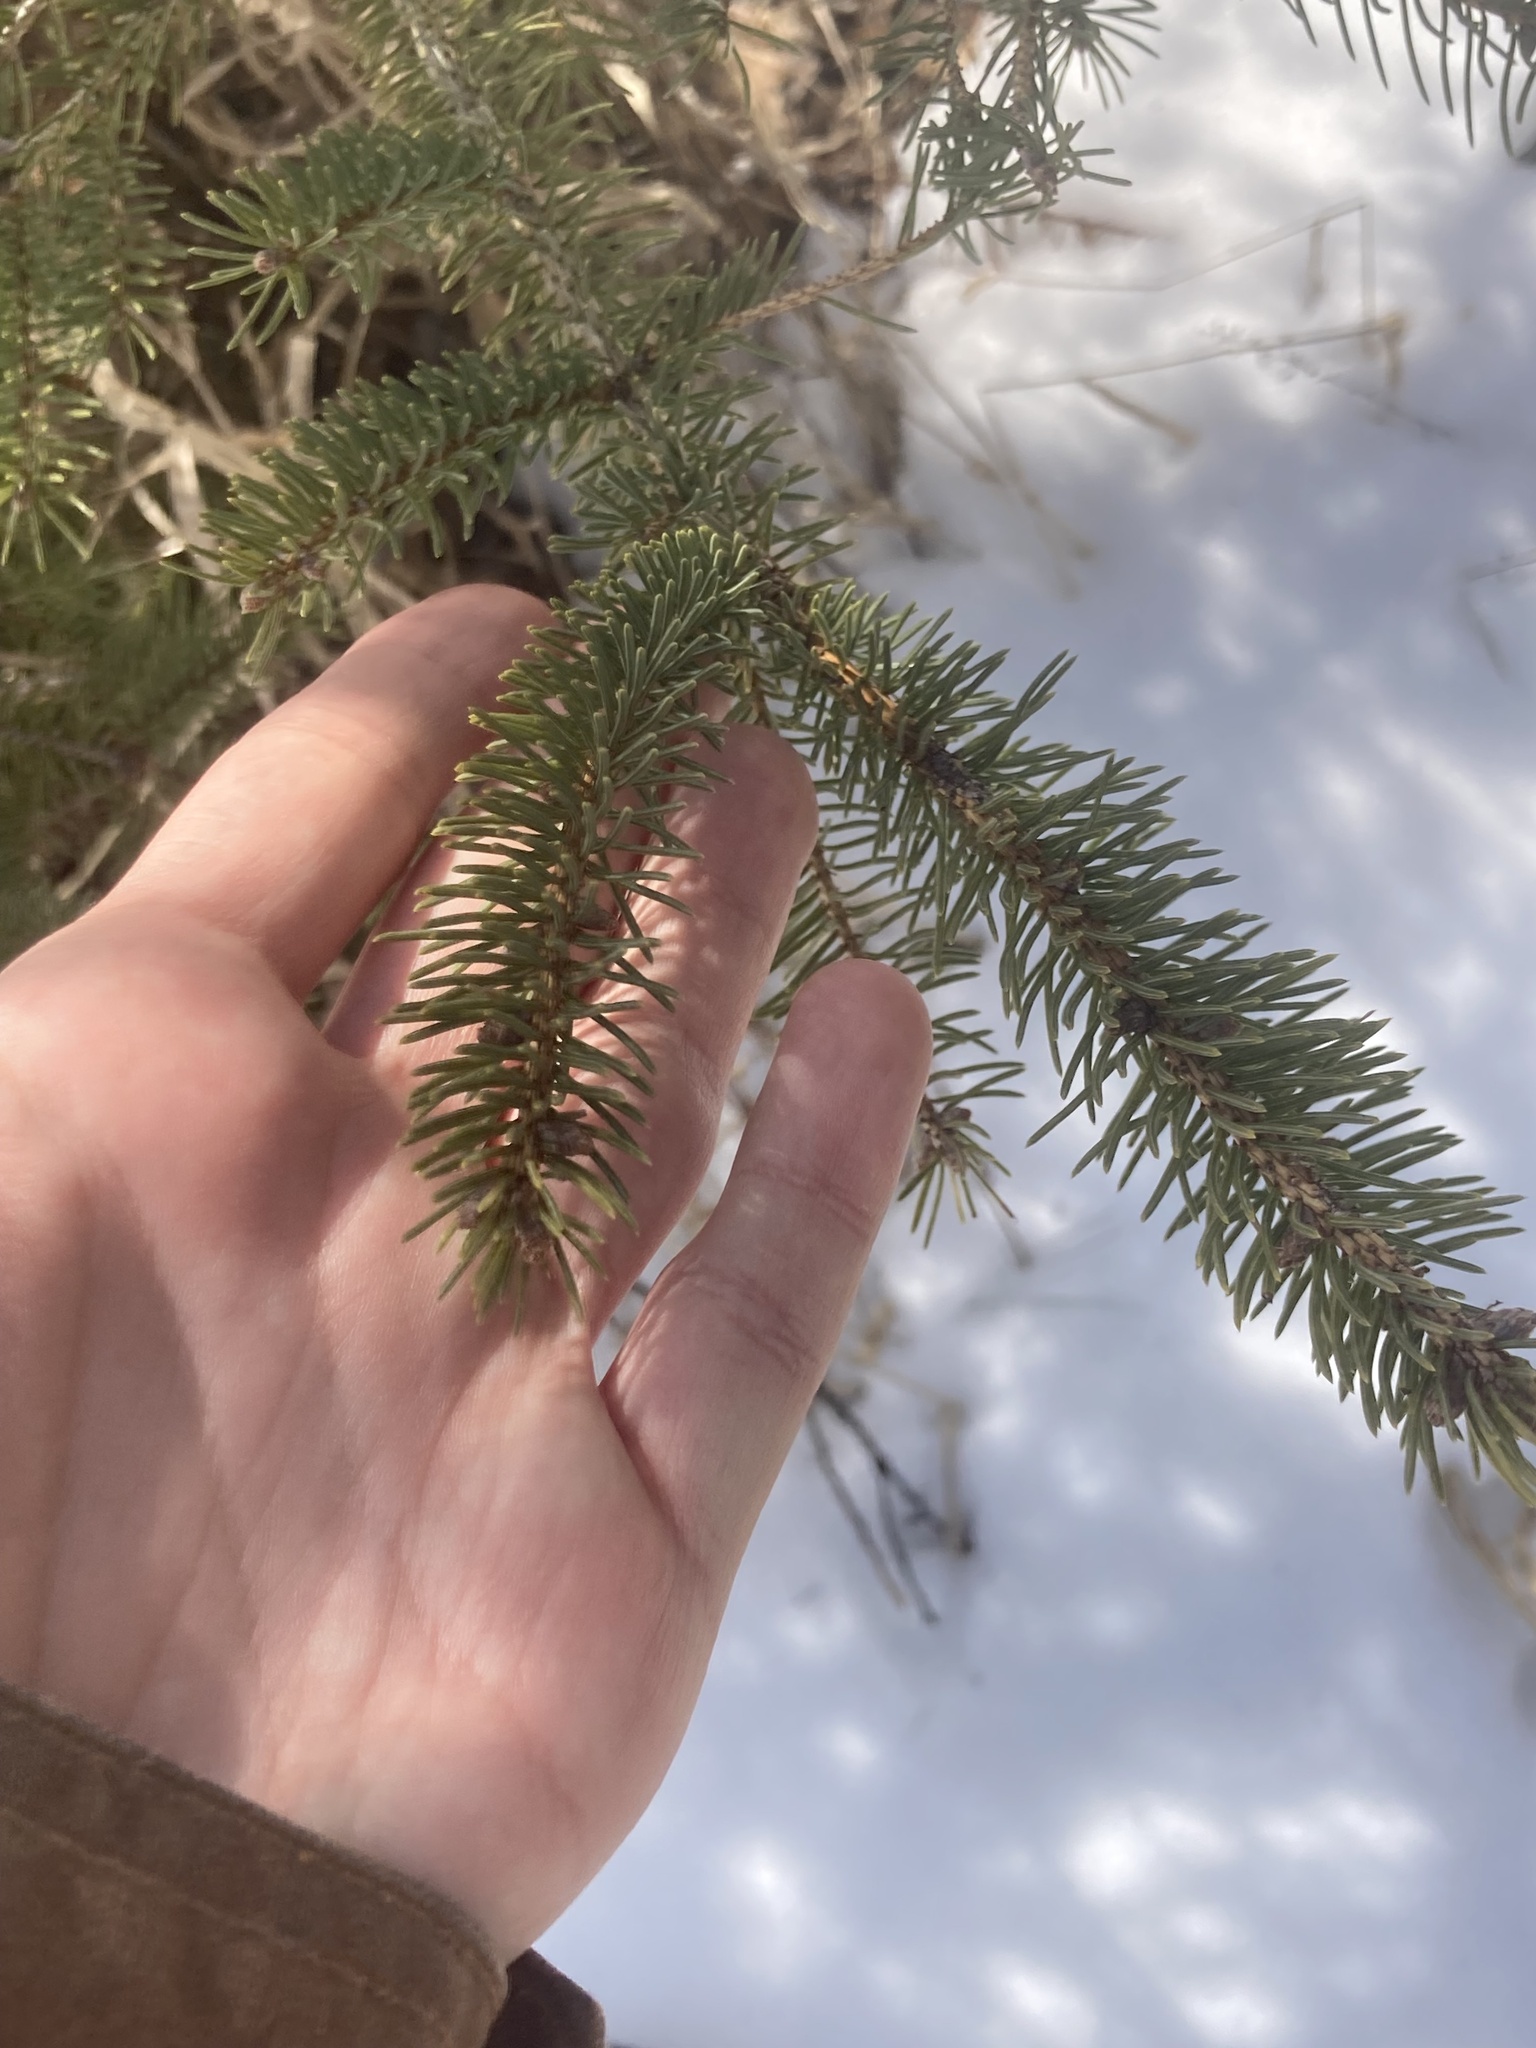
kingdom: Plantae
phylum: Tracheophyta
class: Pinopsida
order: Pinales
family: Pinaceae
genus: Picea
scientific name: Picea glauca
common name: White spruce
